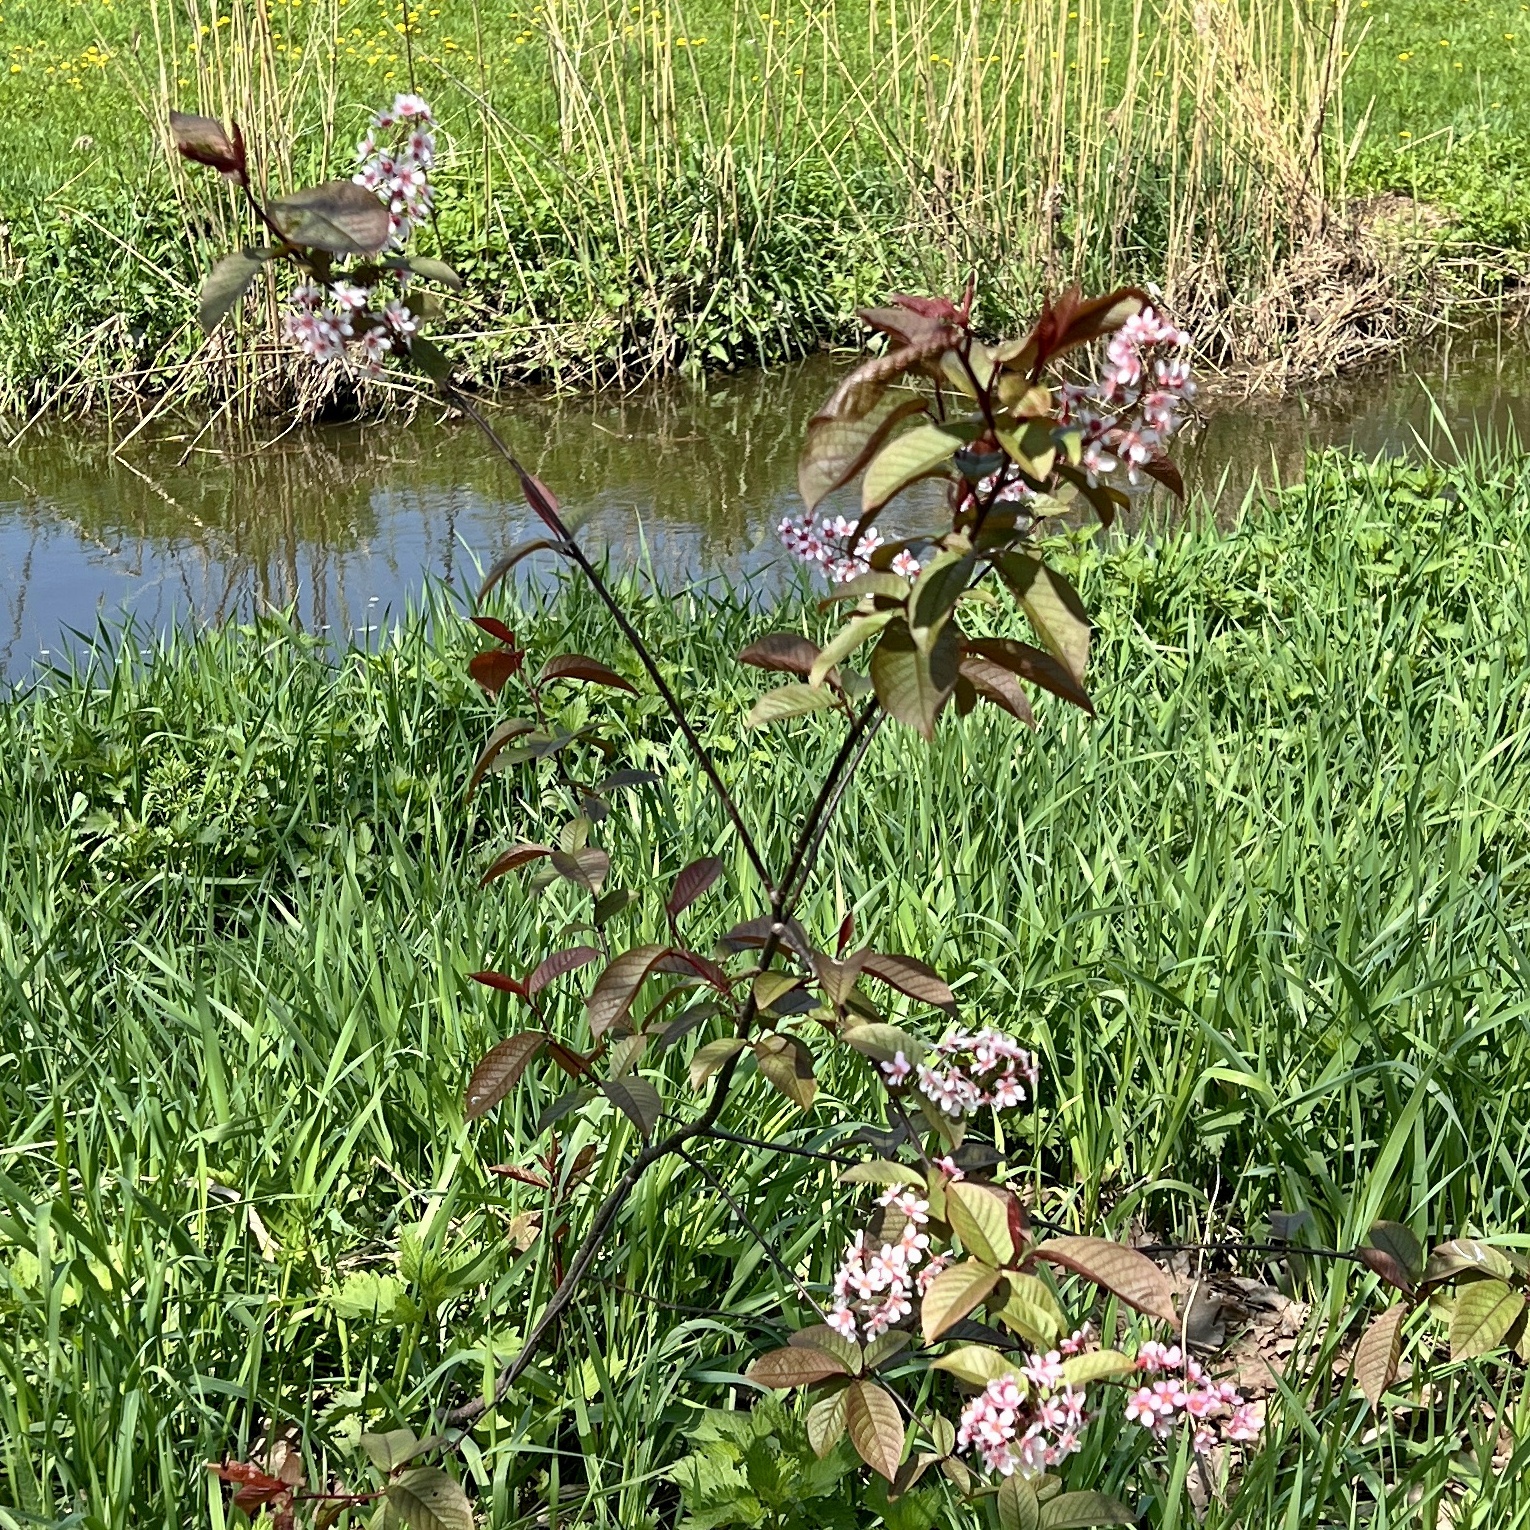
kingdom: Plantae
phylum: Tracheophyta
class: Magnoliopsida
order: Rosales
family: Rosaceae
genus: Prunus
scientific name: Prunus padus
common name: Bird cherry
